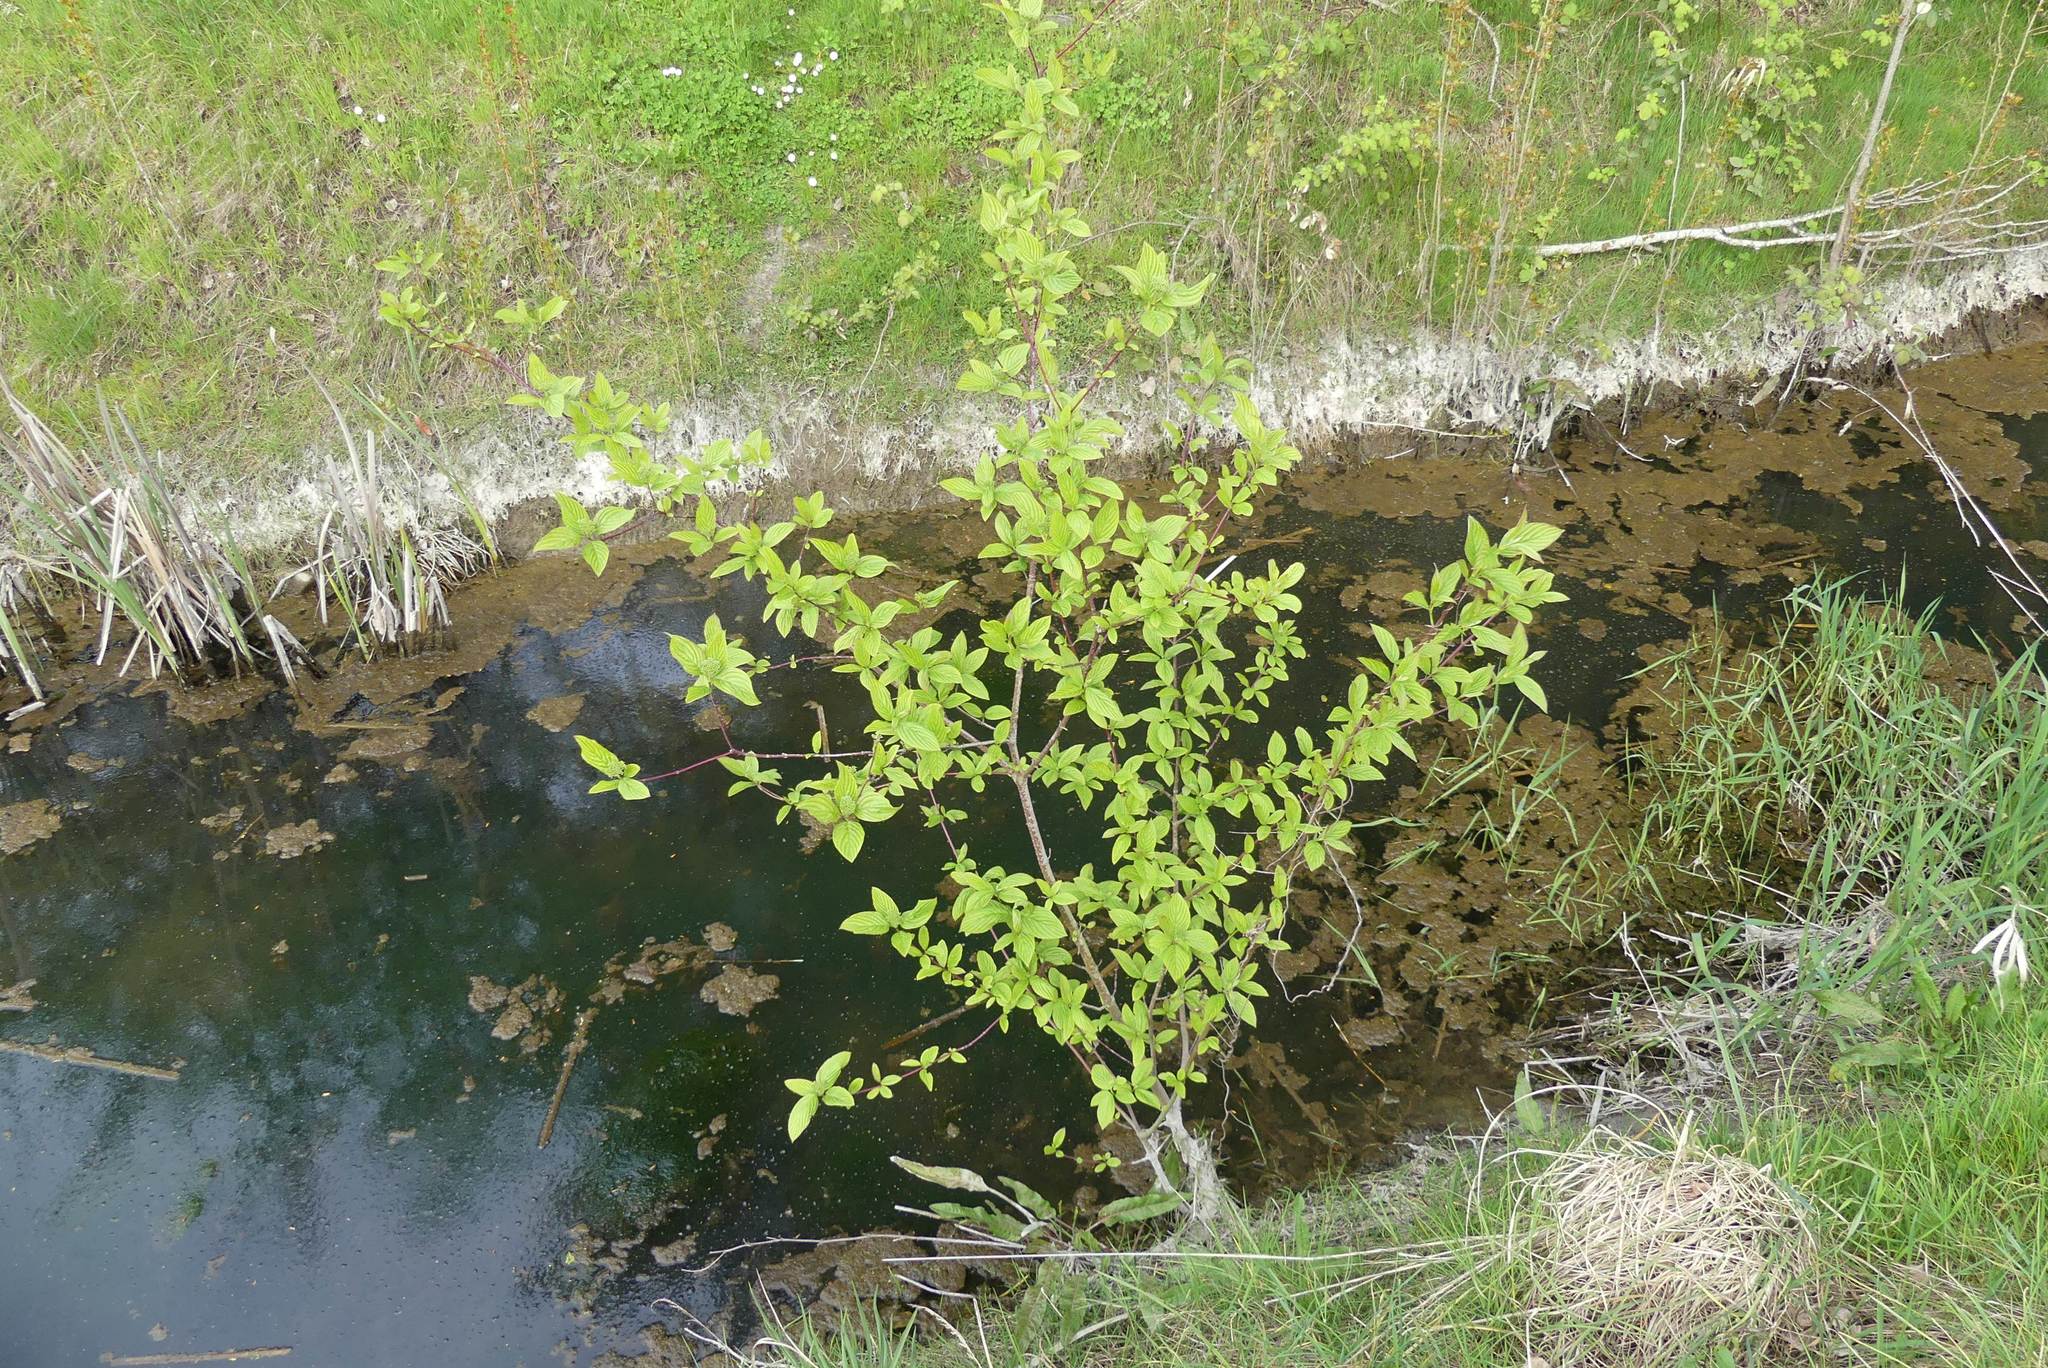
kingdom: Plantae
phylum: Tracheophyta
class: Magnoliopsida
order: Cornales
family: Cornaceae
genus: Cornus
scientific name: Cornus sericea
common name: Red-osier dogwood
